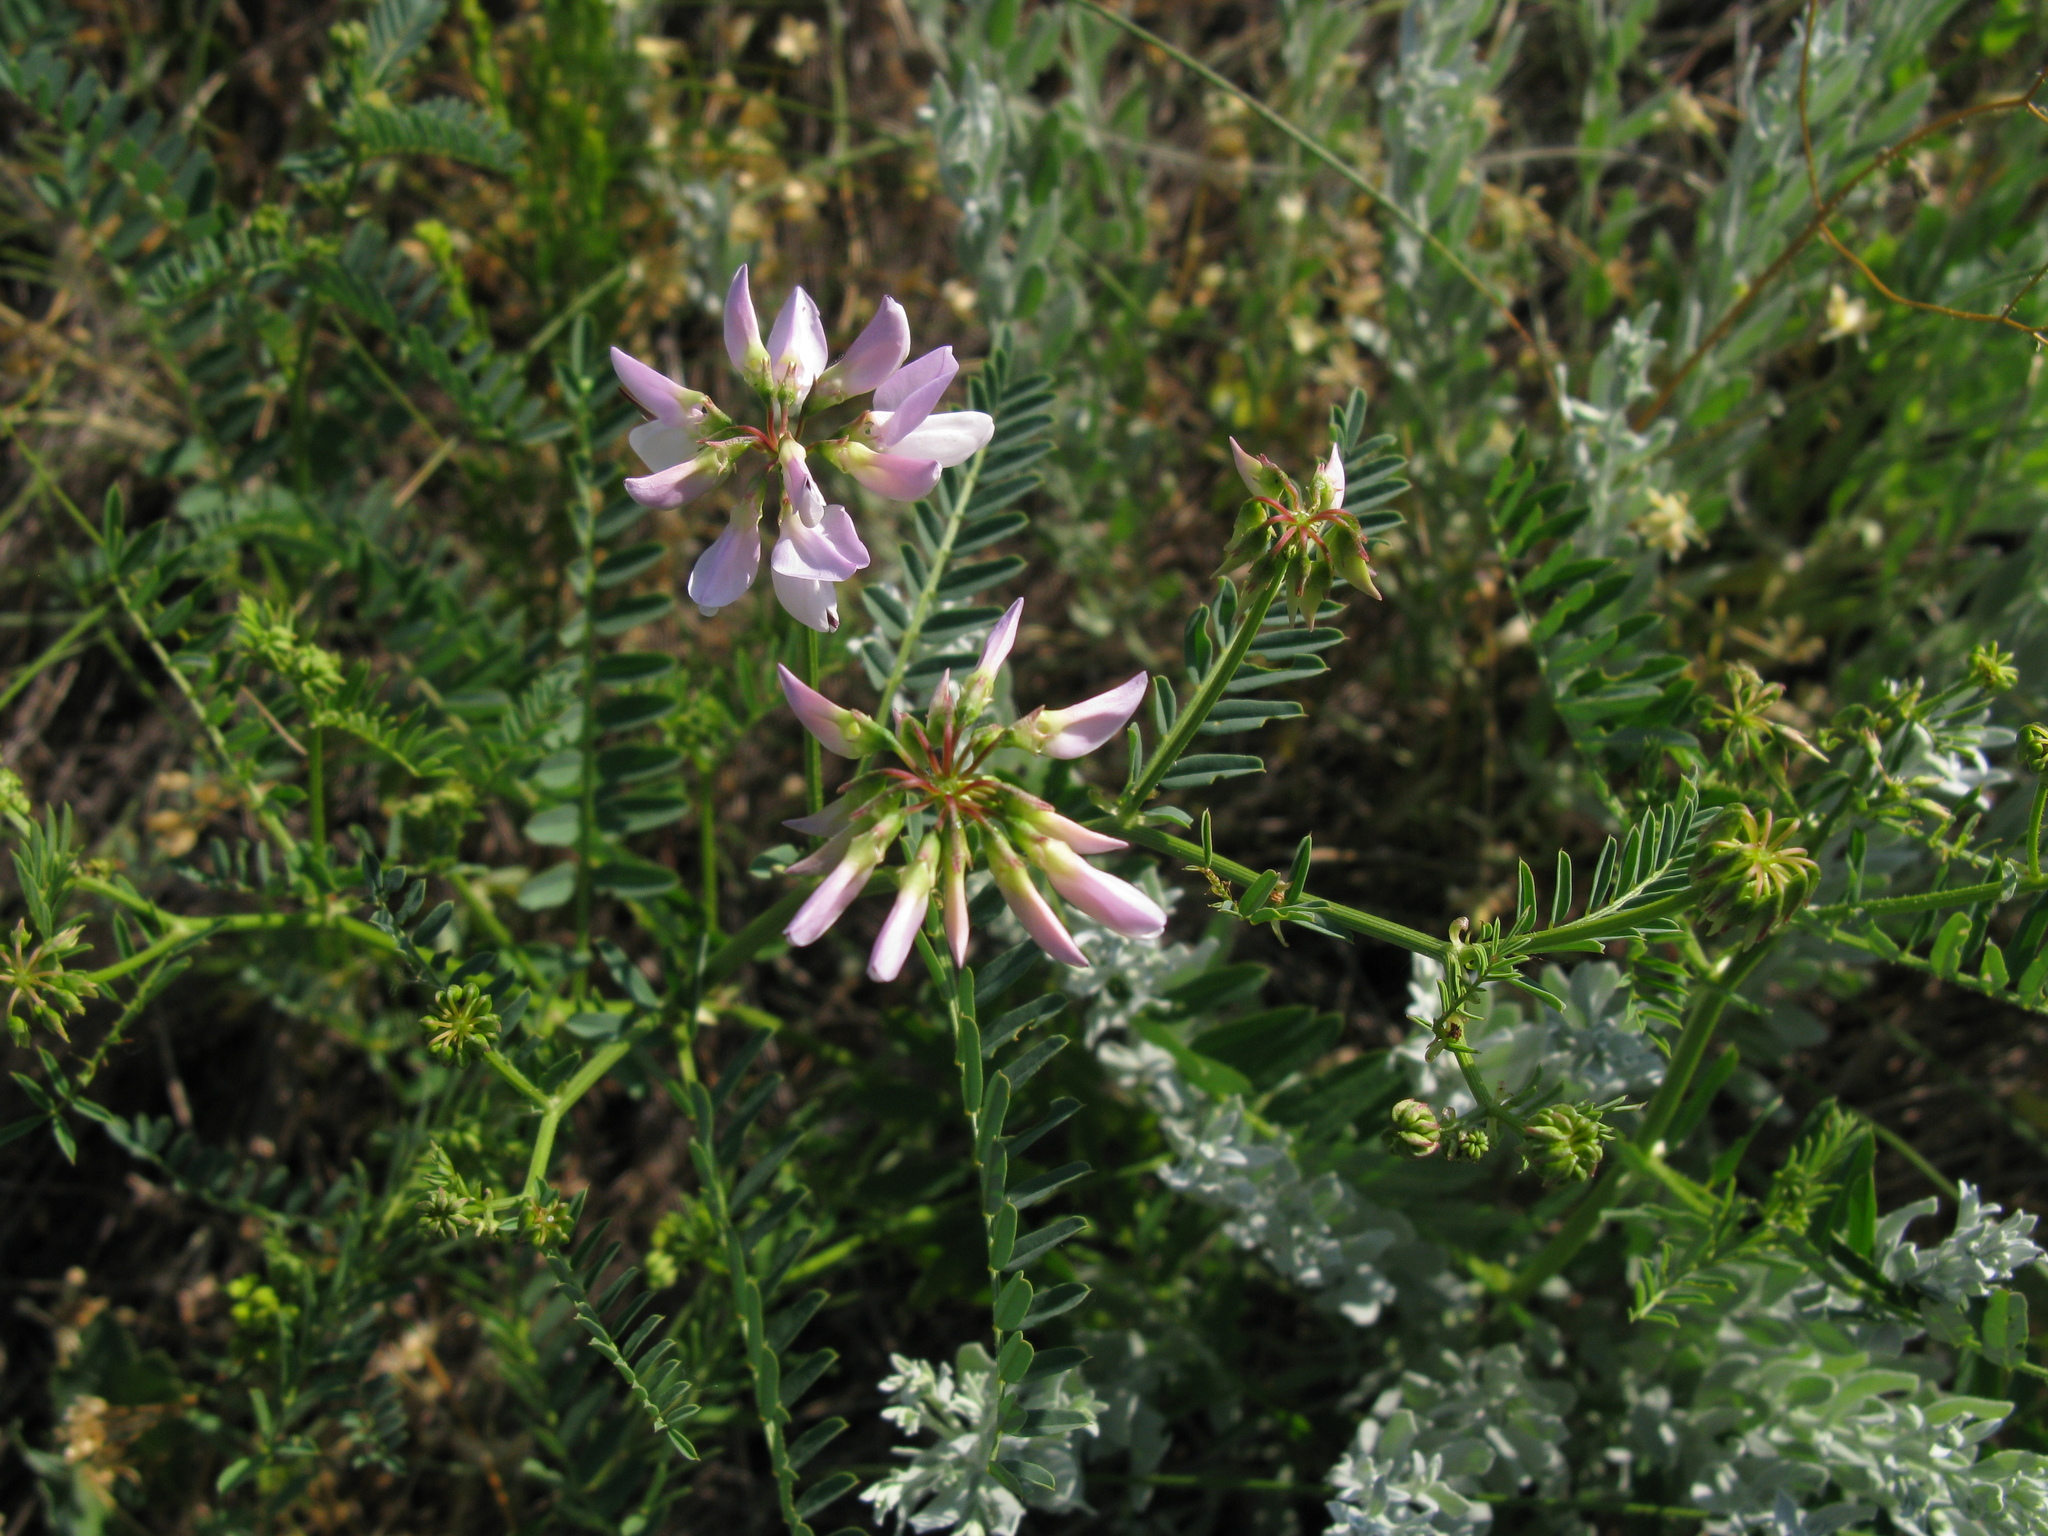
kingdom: Plantae
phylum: Tracheophyta
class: Magnoliopsida
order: Fabales
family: Fabaceae
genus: Coronilla
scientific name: Coronilla varia
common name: Crownvetch
